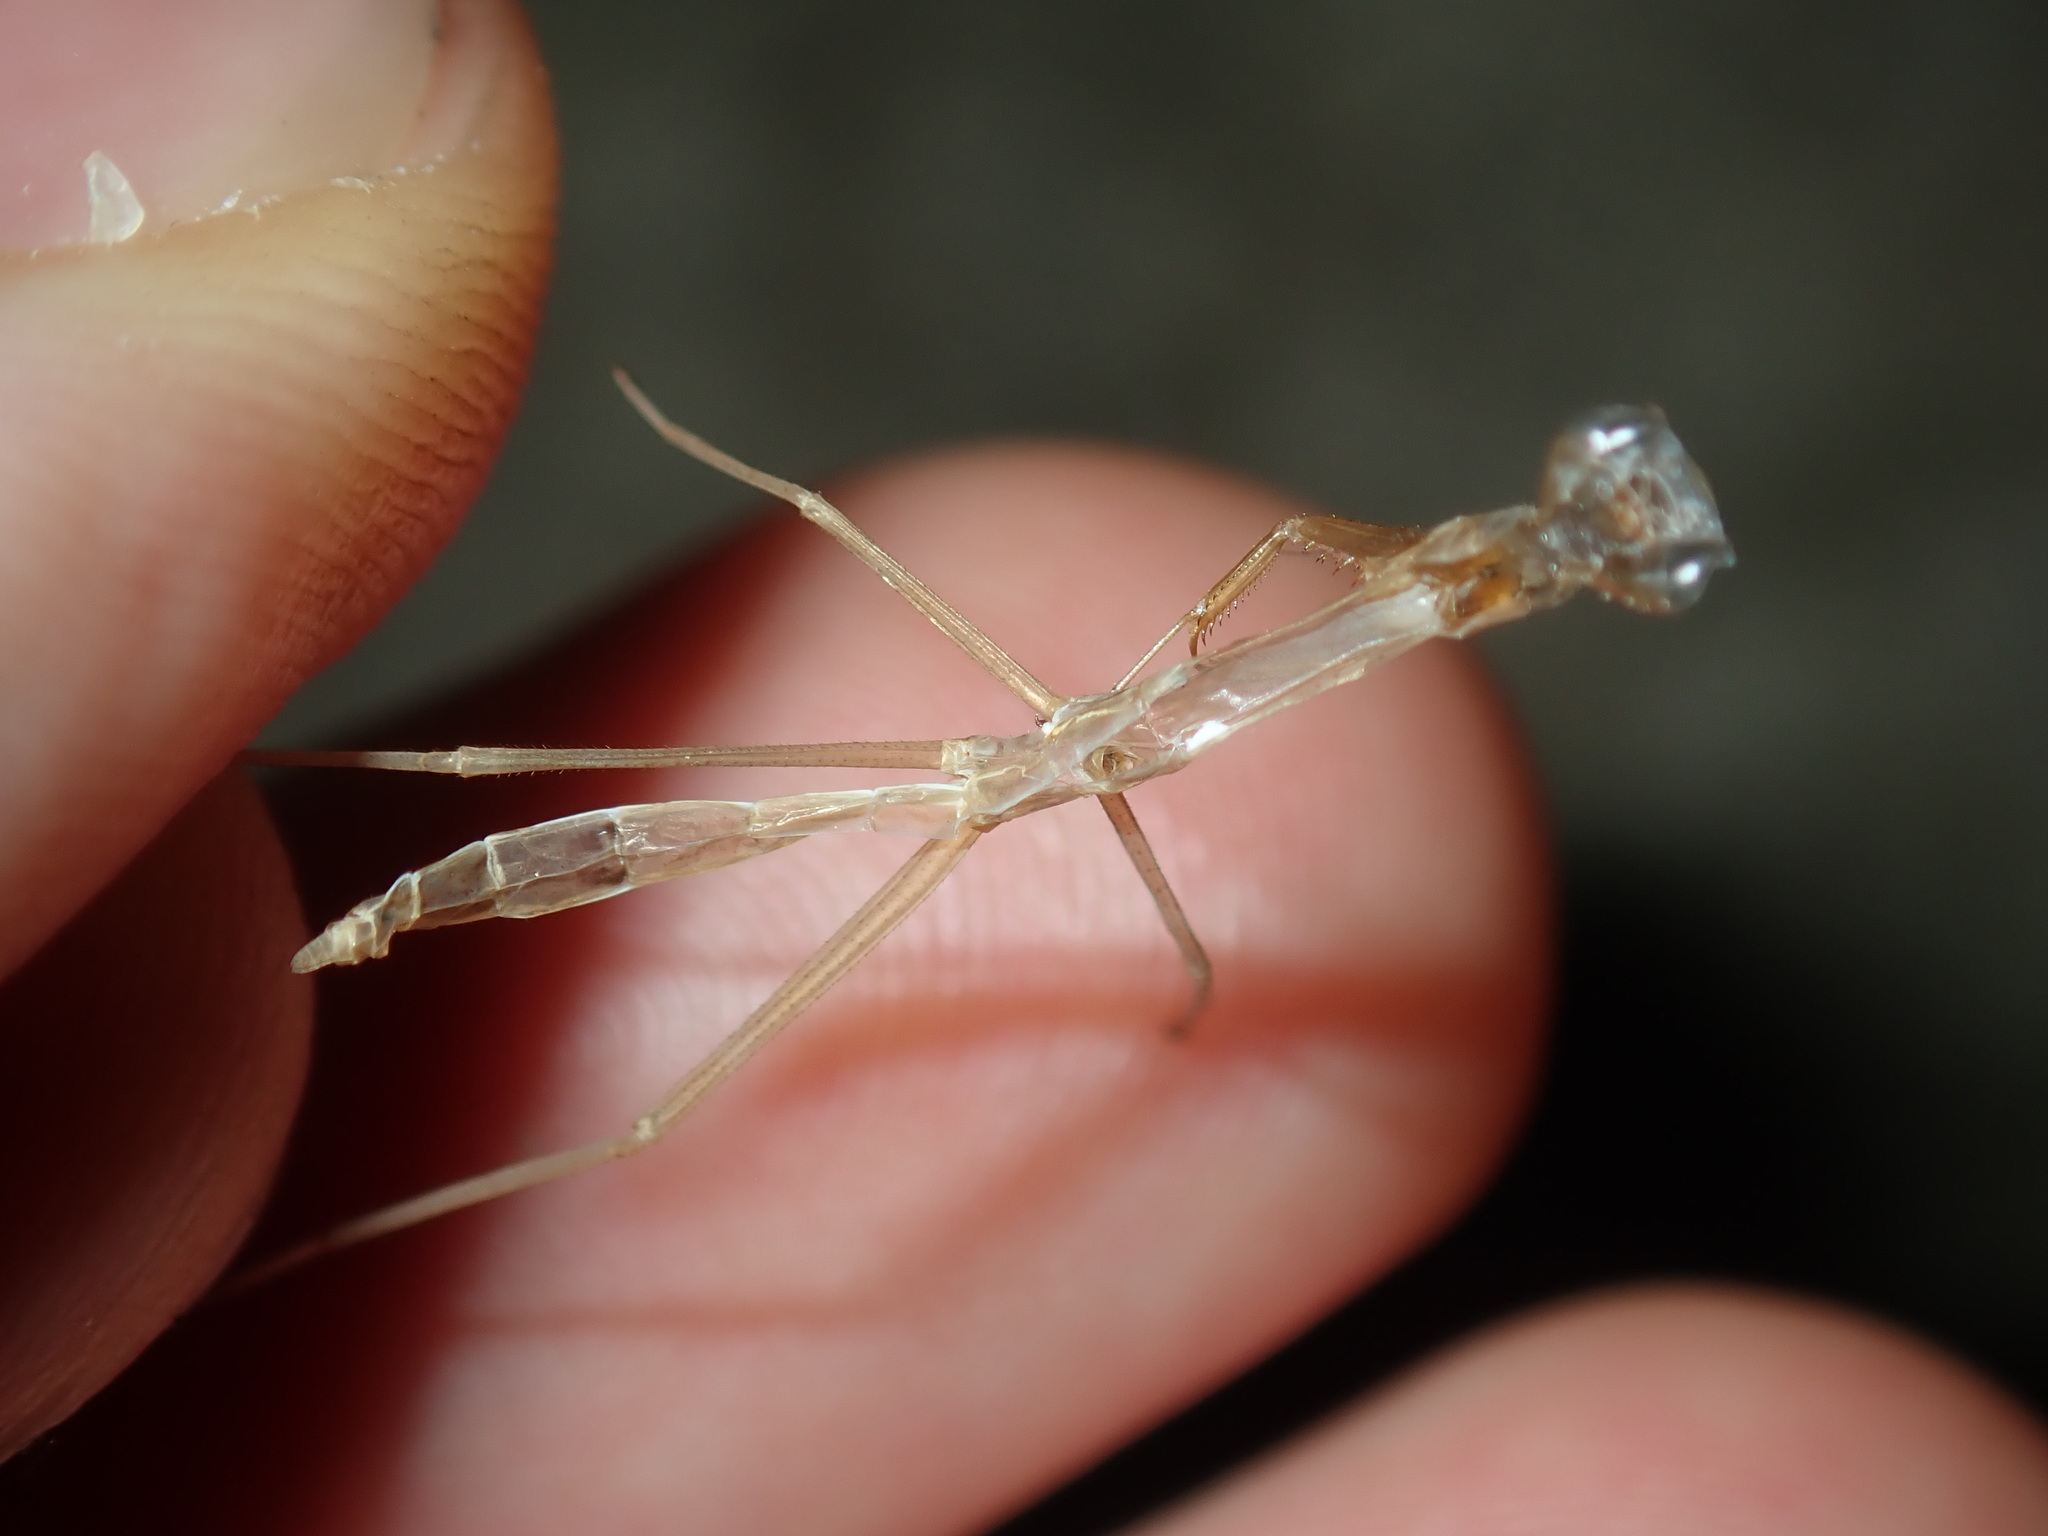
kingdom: Animalia
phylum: Arthropoda
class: Insecta
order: Mantodea
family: Mantidae
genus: Archimantis
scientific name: Archimantis latistyla
